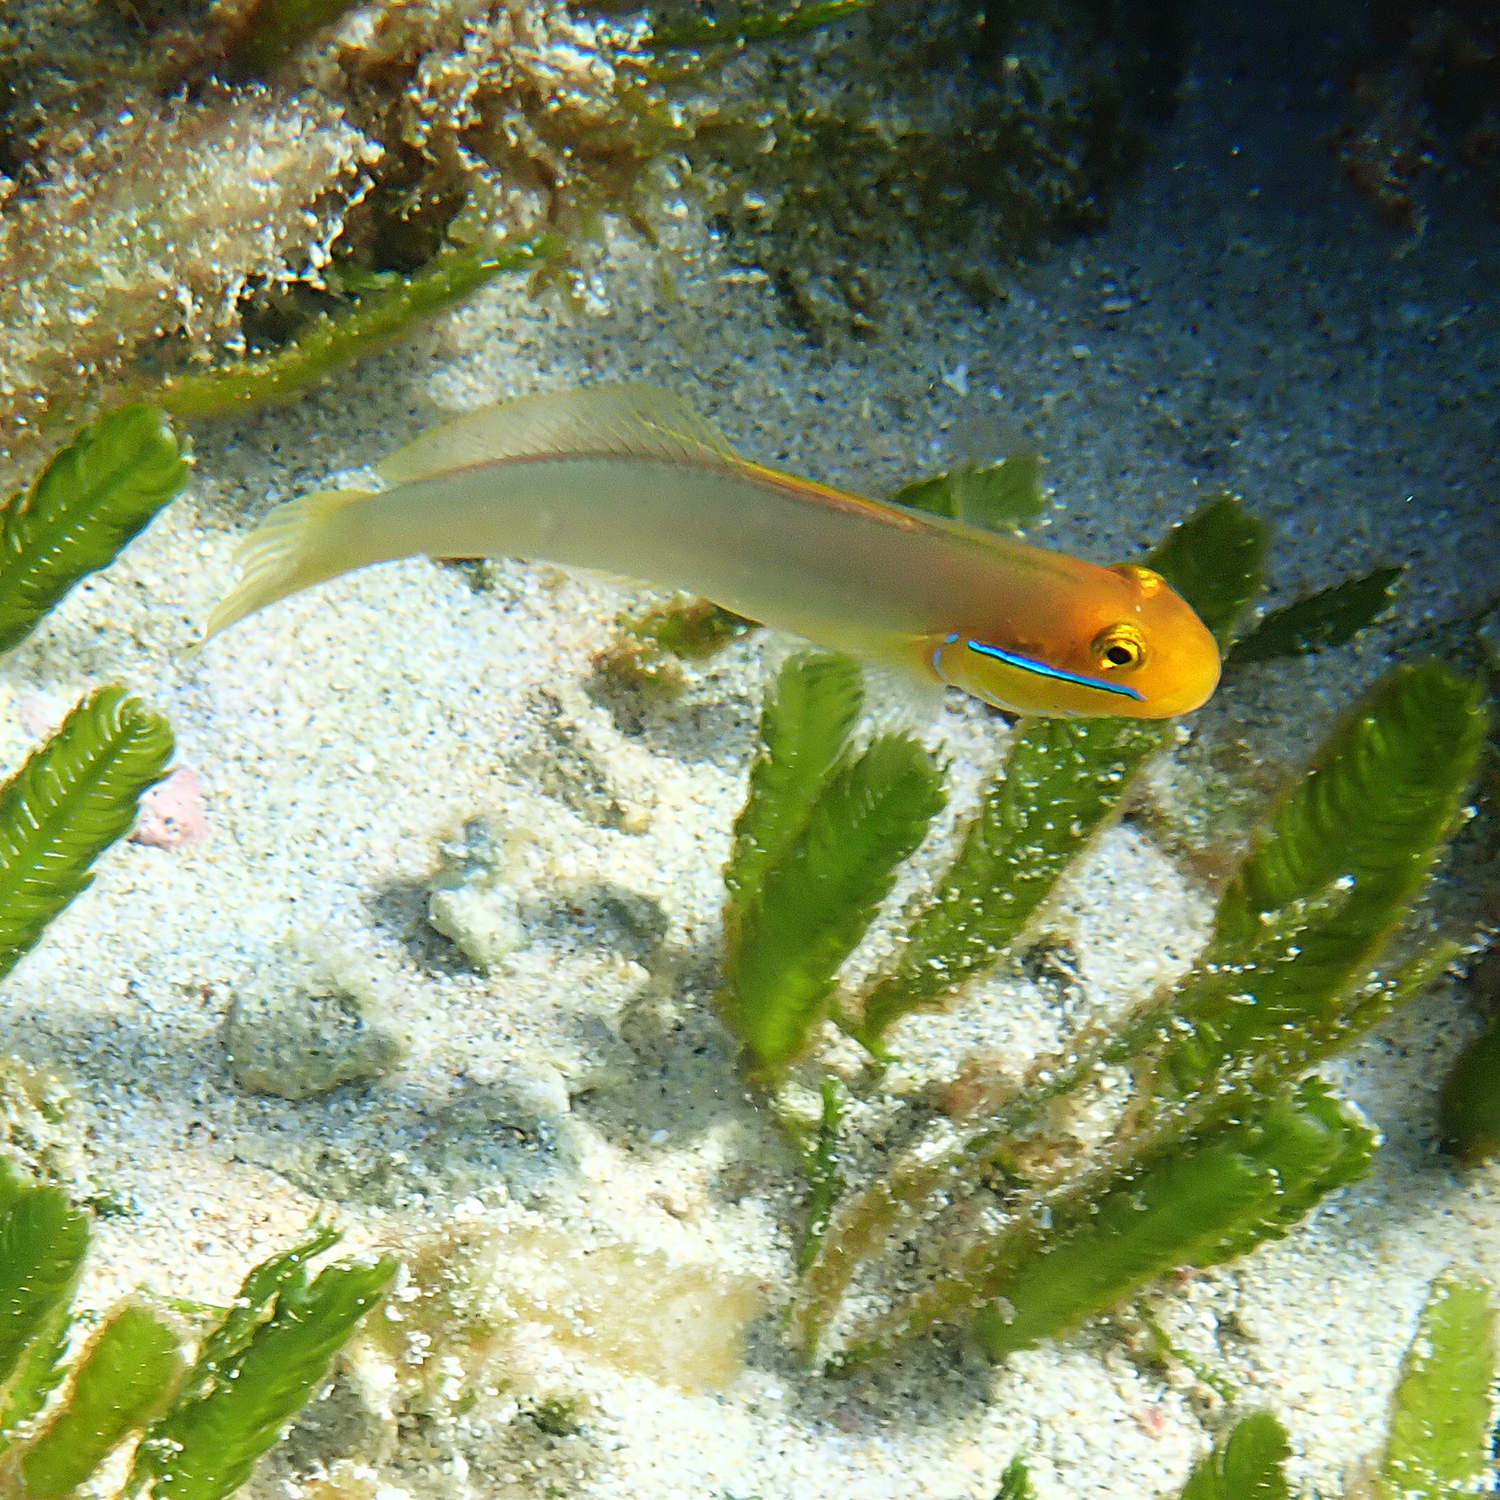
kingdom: Animalia
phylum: Chordata
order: Perciformes
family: Gobiidae
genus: Valenciennea
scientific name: Valenciennea strigata
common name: Blueband goby
